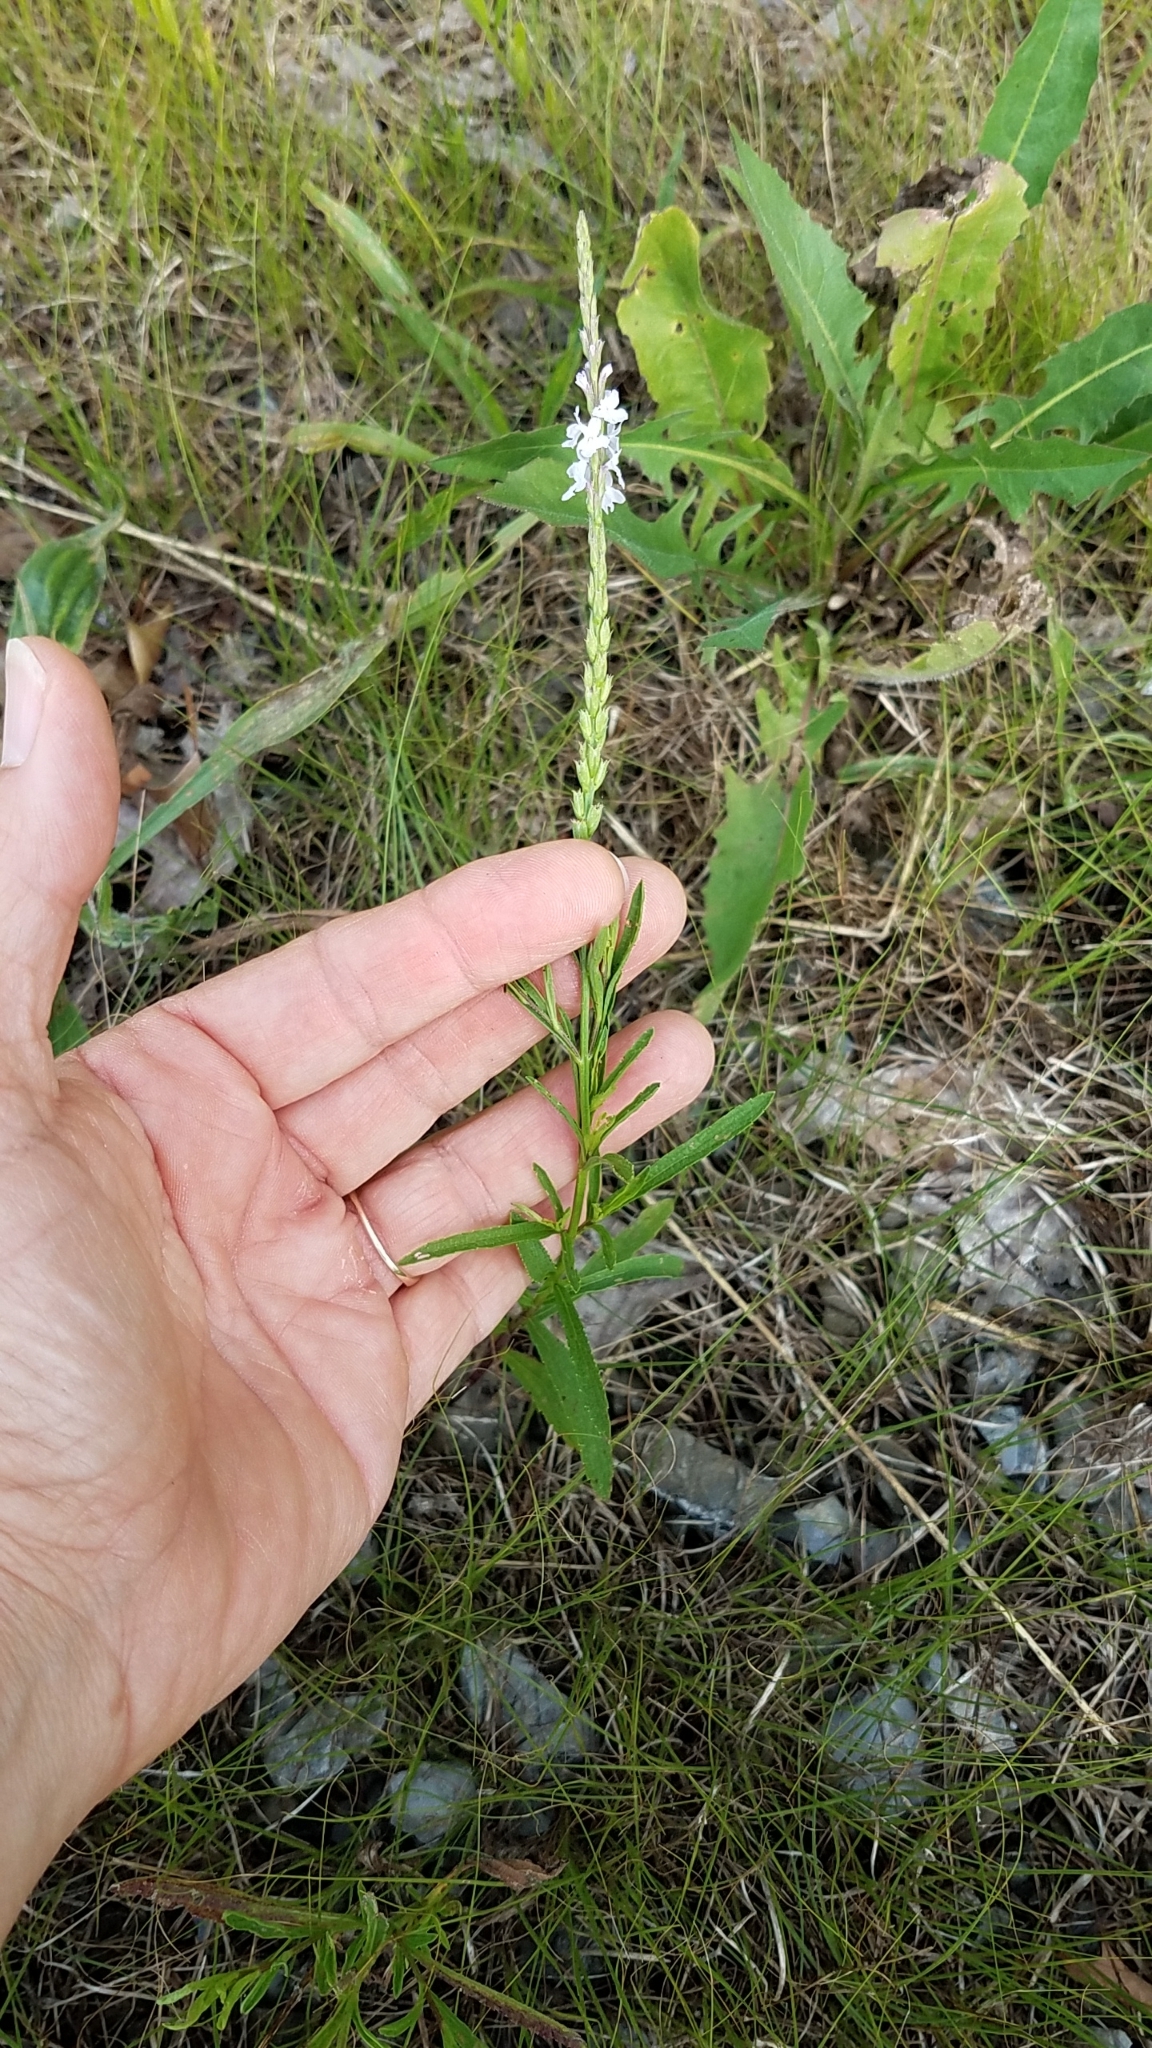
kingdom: Plantae
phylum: Tracheophyta
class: Magnoliopsida
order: Lamiales
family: Verbenaceae
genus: Verbena
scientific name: Verbena simplex
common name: Narrow-leaf vervain
